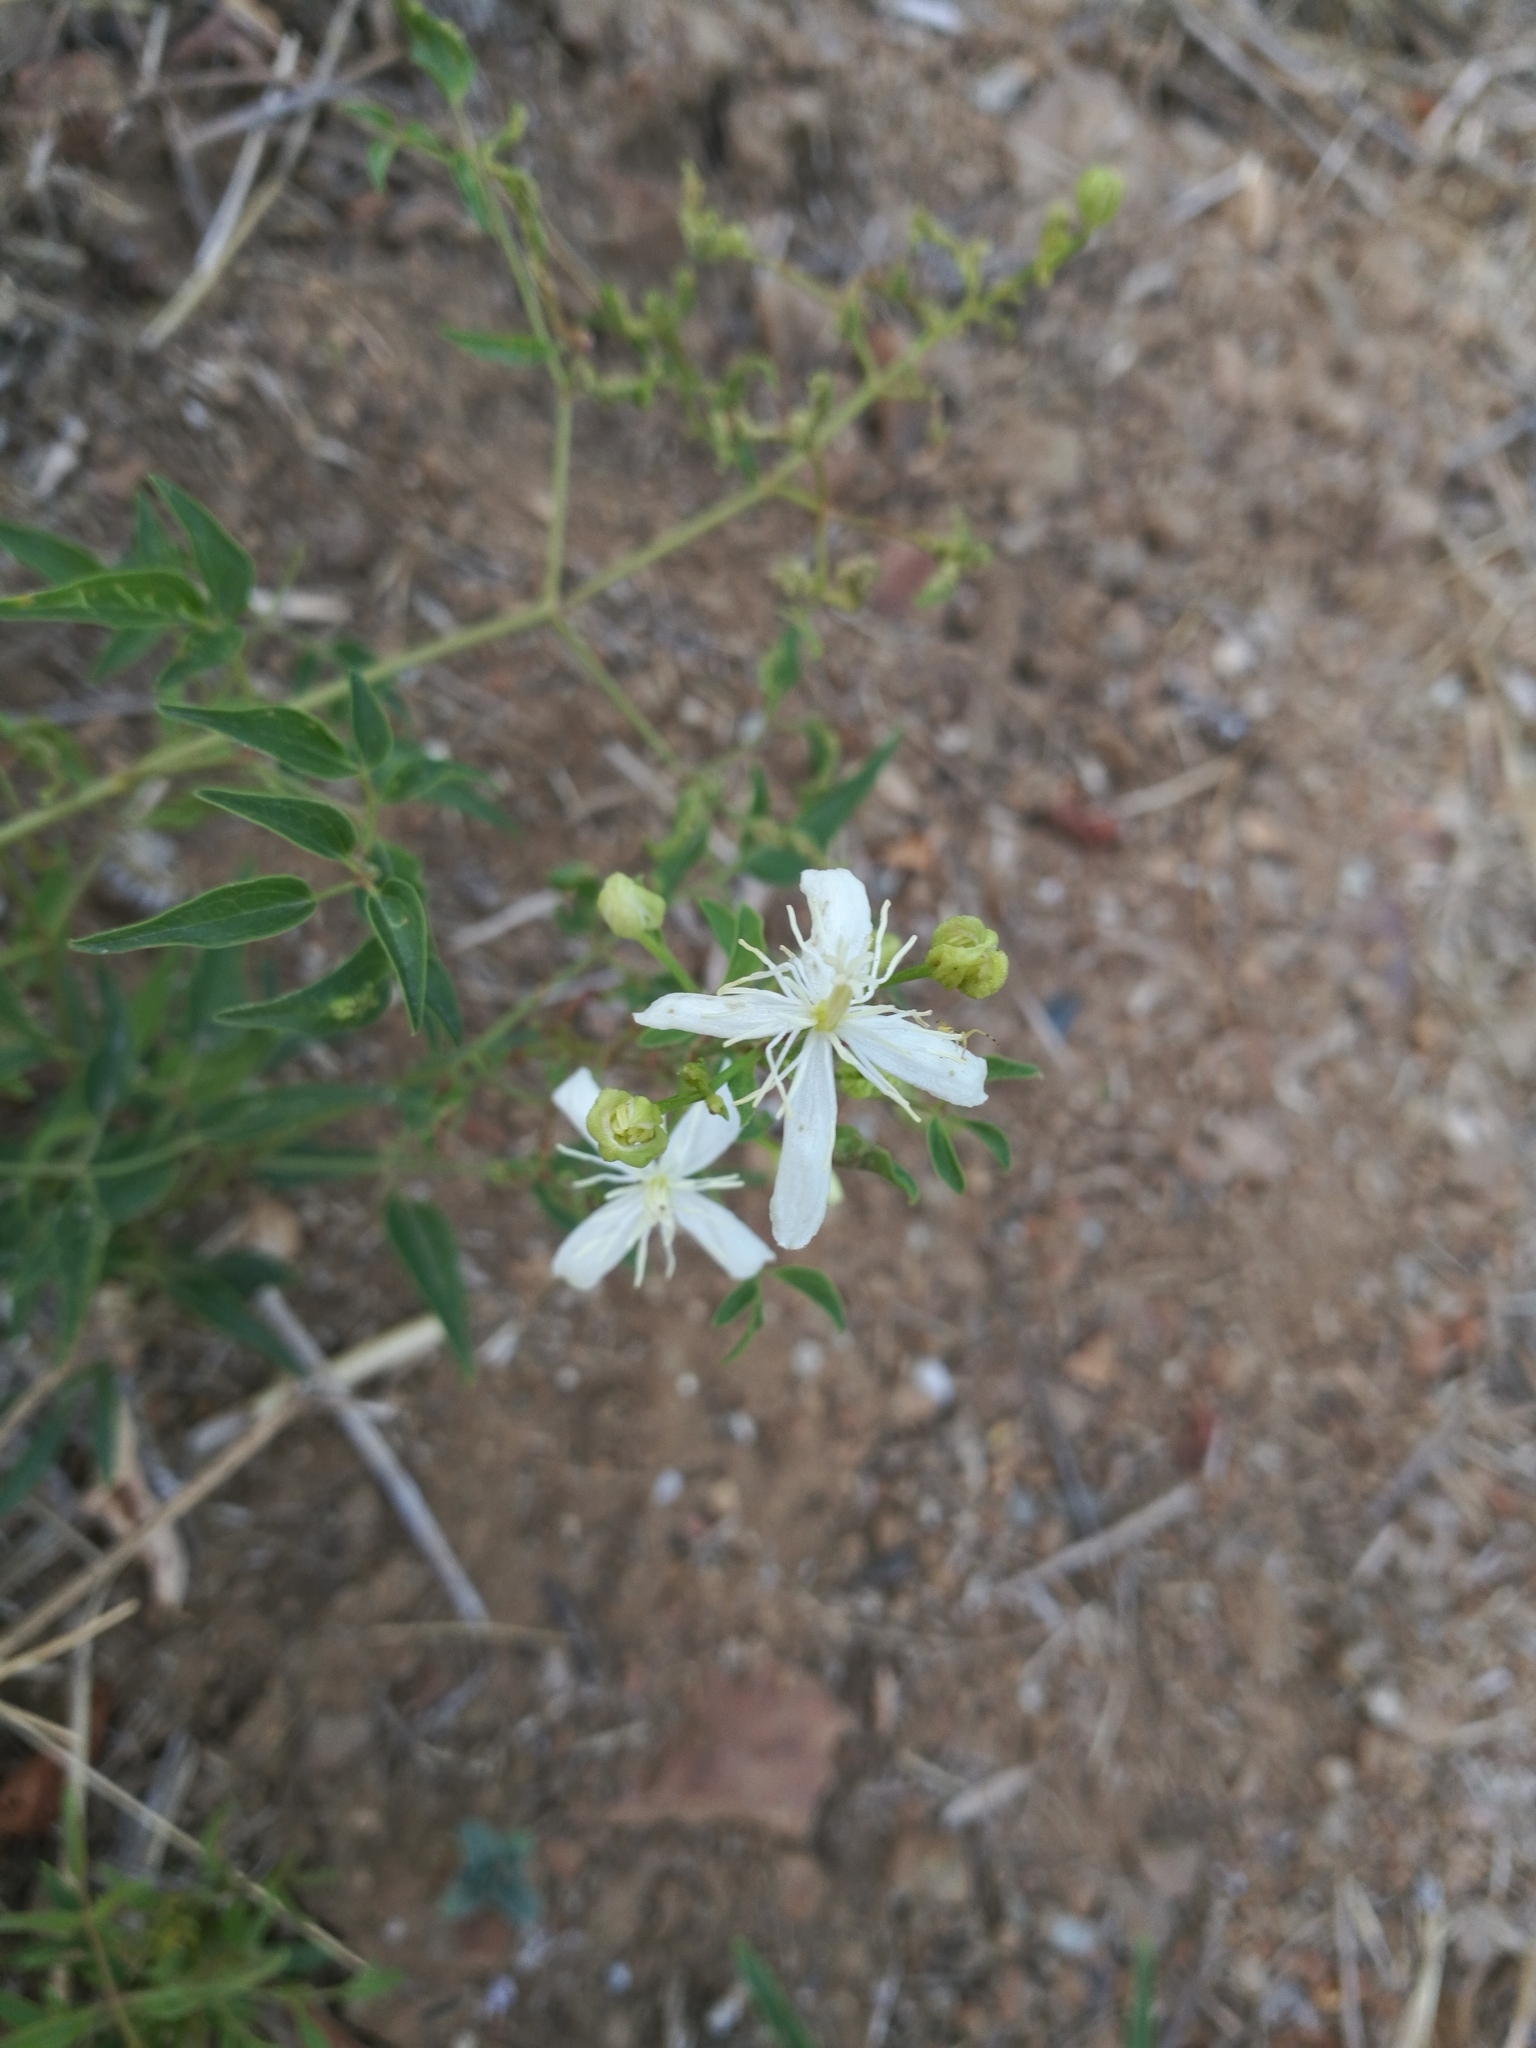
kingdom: Plantae
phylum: Tracheophyta
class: Magnoliopsida
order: Ranunculales
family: Ranunculaceae
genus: Clematis
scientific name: Clematis flammula
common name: Virgin's-bower
